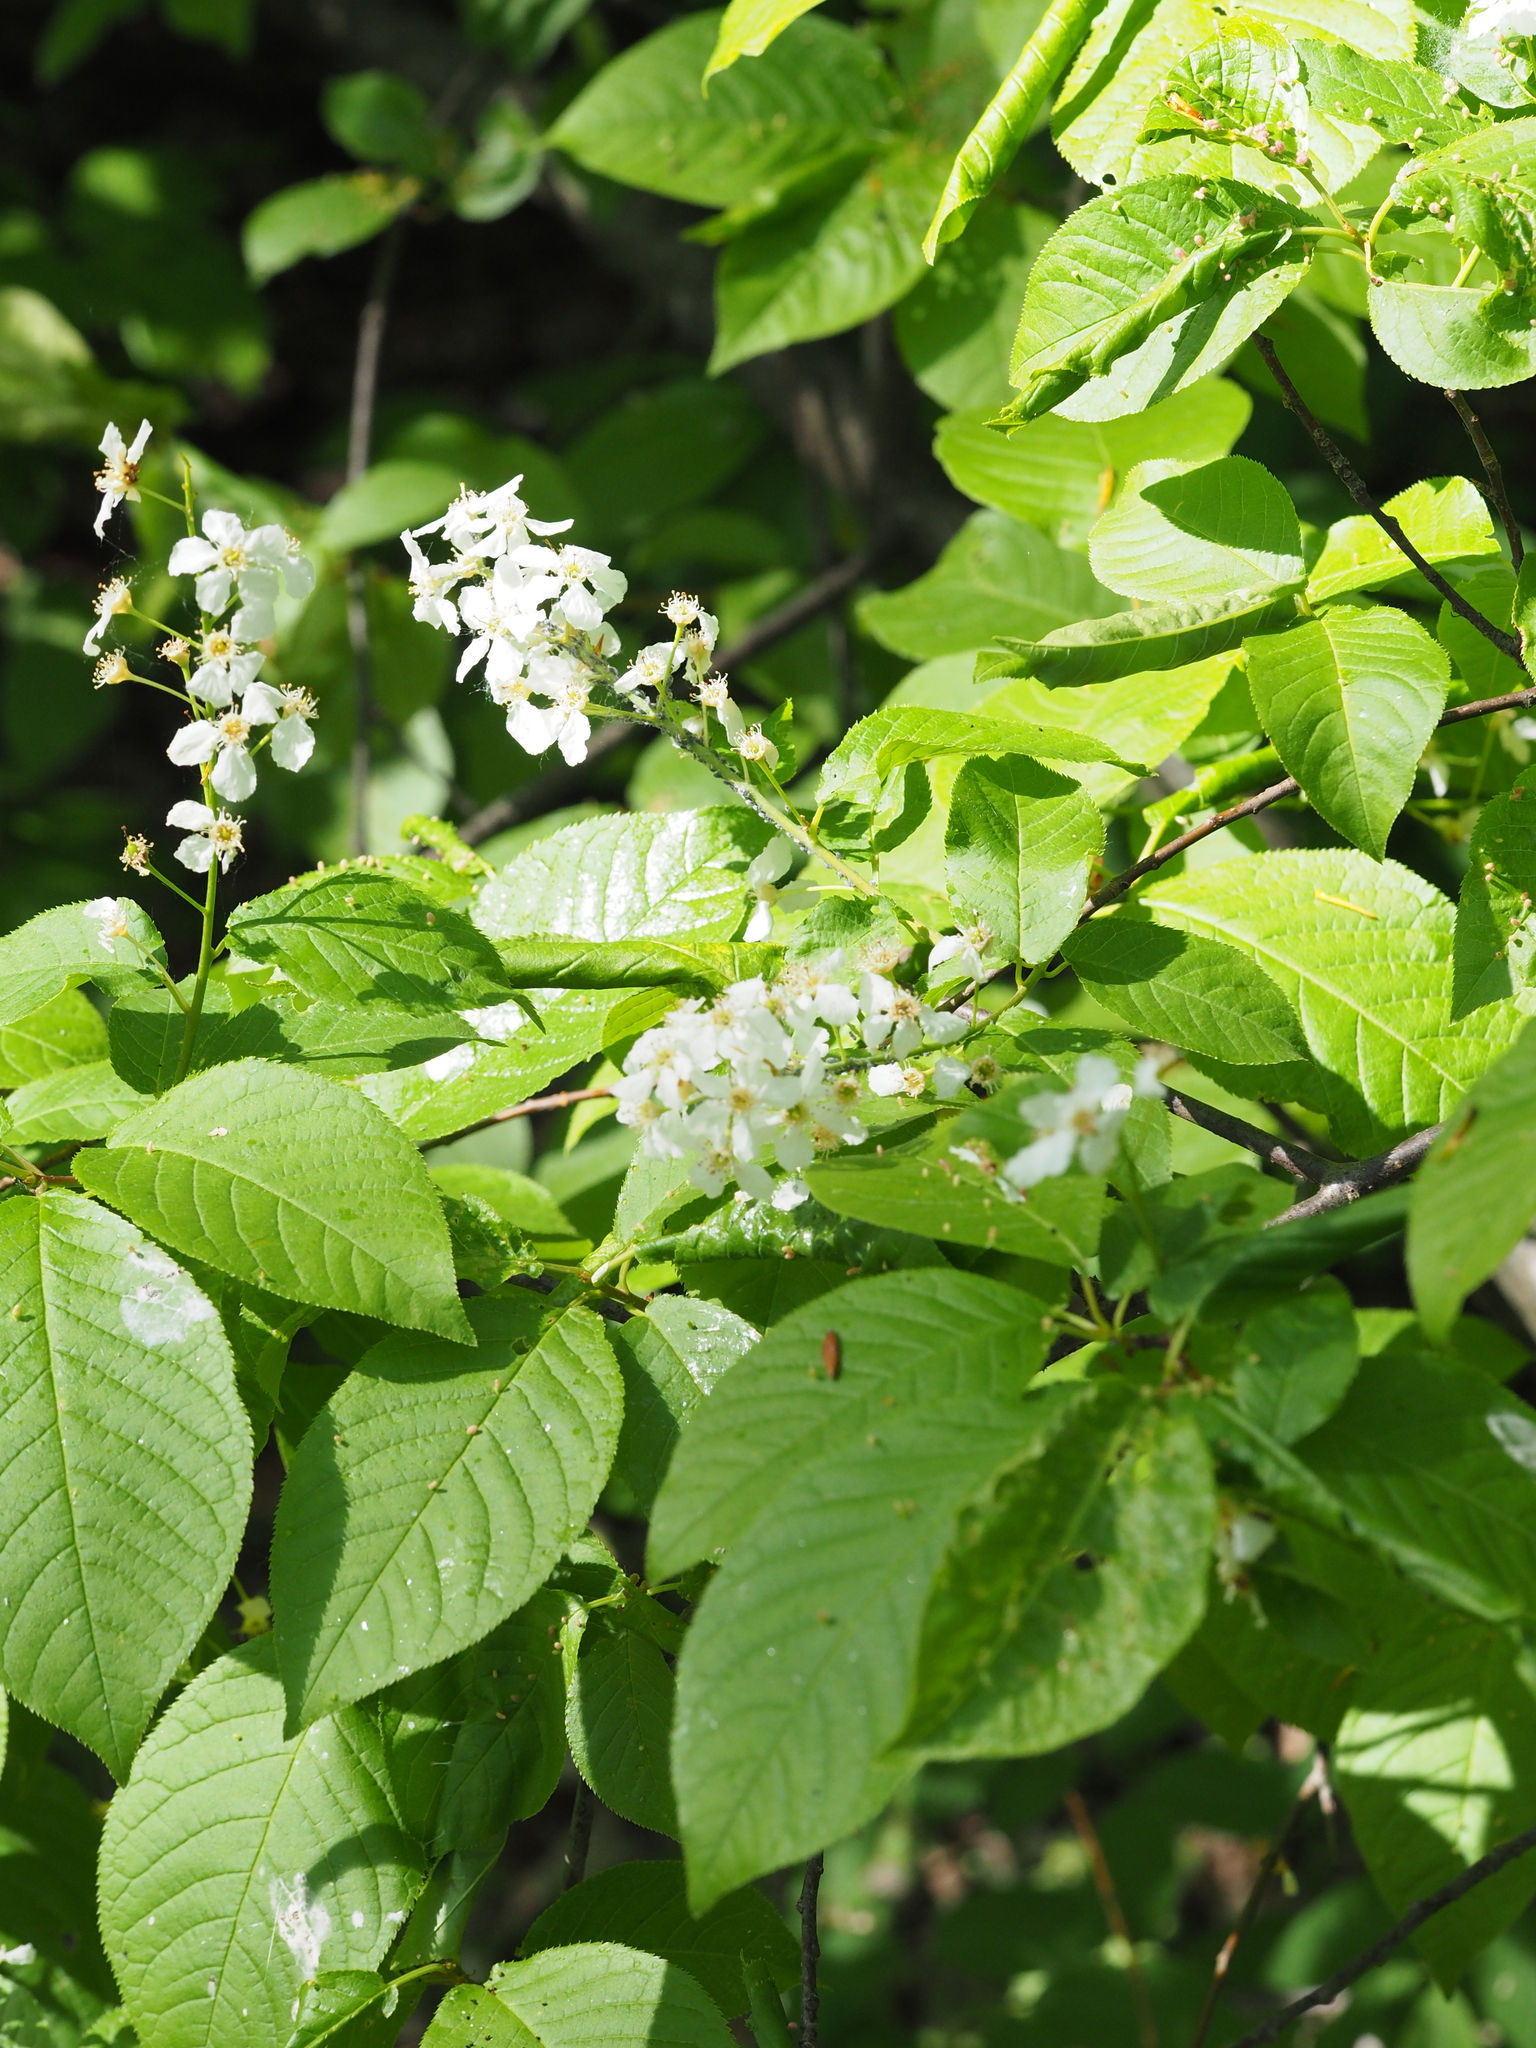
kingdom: Animalia
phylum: Arthropoda
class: Arachnida
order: Trombidiformes
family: Eriophyidae
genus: Phyllocoptes
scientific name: Phyllocoptes eupadi
